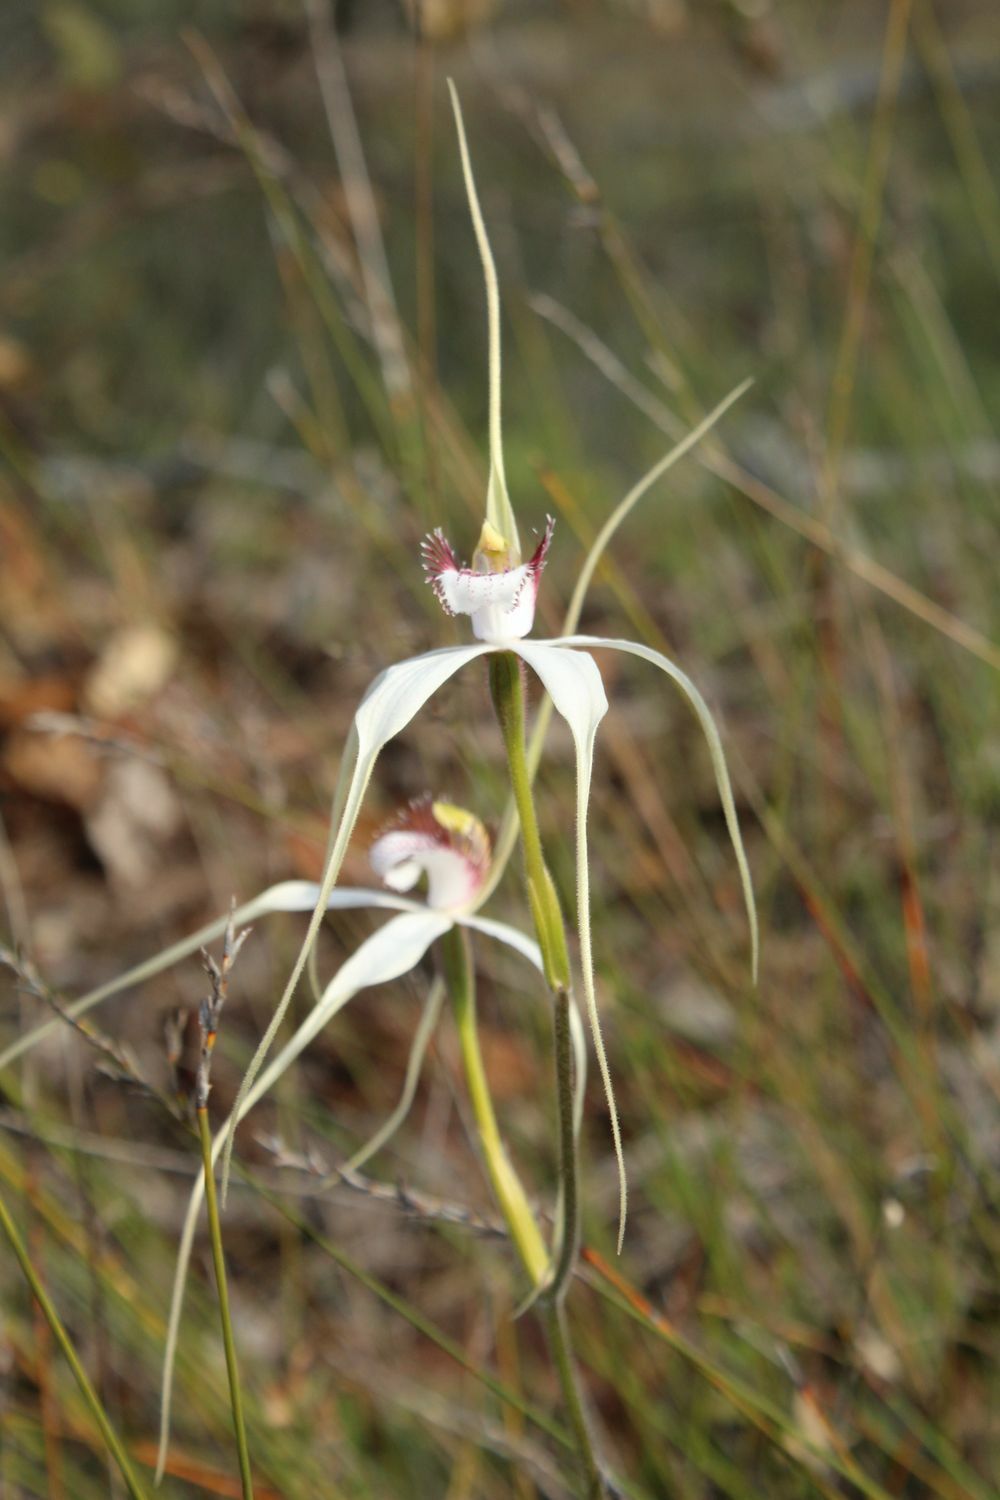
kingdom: Plantae
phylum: Tracheophyta
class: Liliopsida
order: Asparagales
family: Orchidaceae
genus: Caladenia
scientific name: Caladenia longicauda
